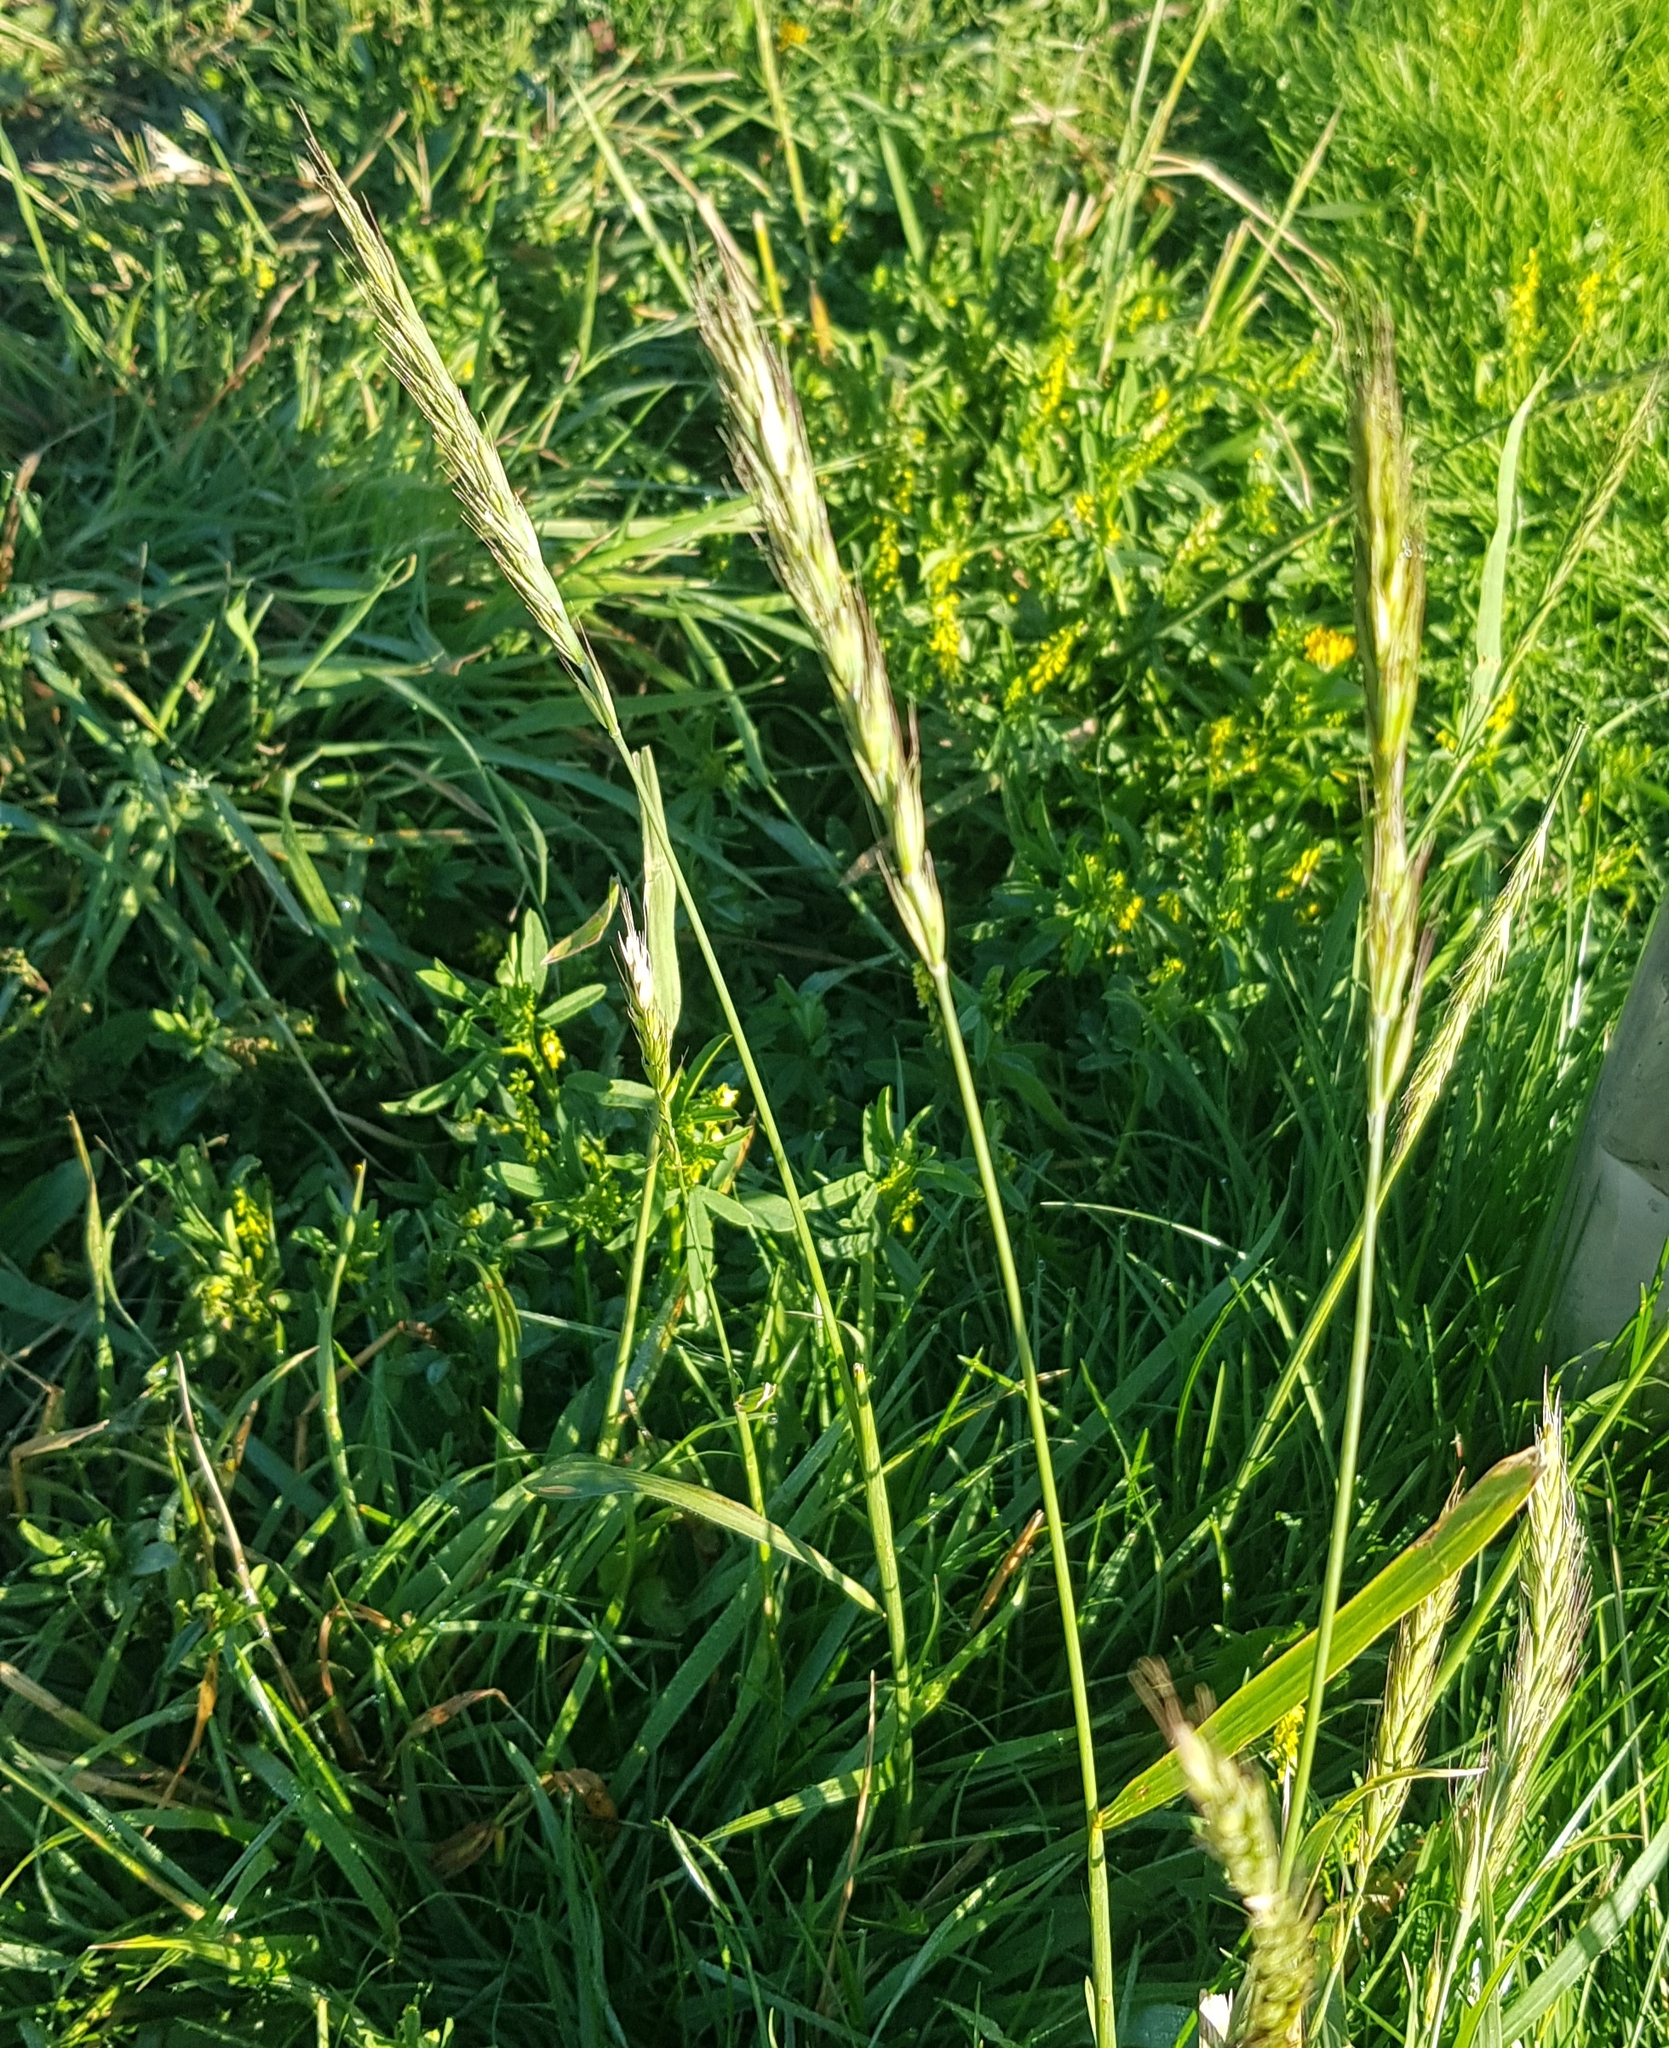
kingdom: Plantae
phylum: Tracheophyta
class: Liliopsida
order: Poales
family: Poaceae
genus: Elymus
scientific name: Elymus repens
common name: Quackgrass
